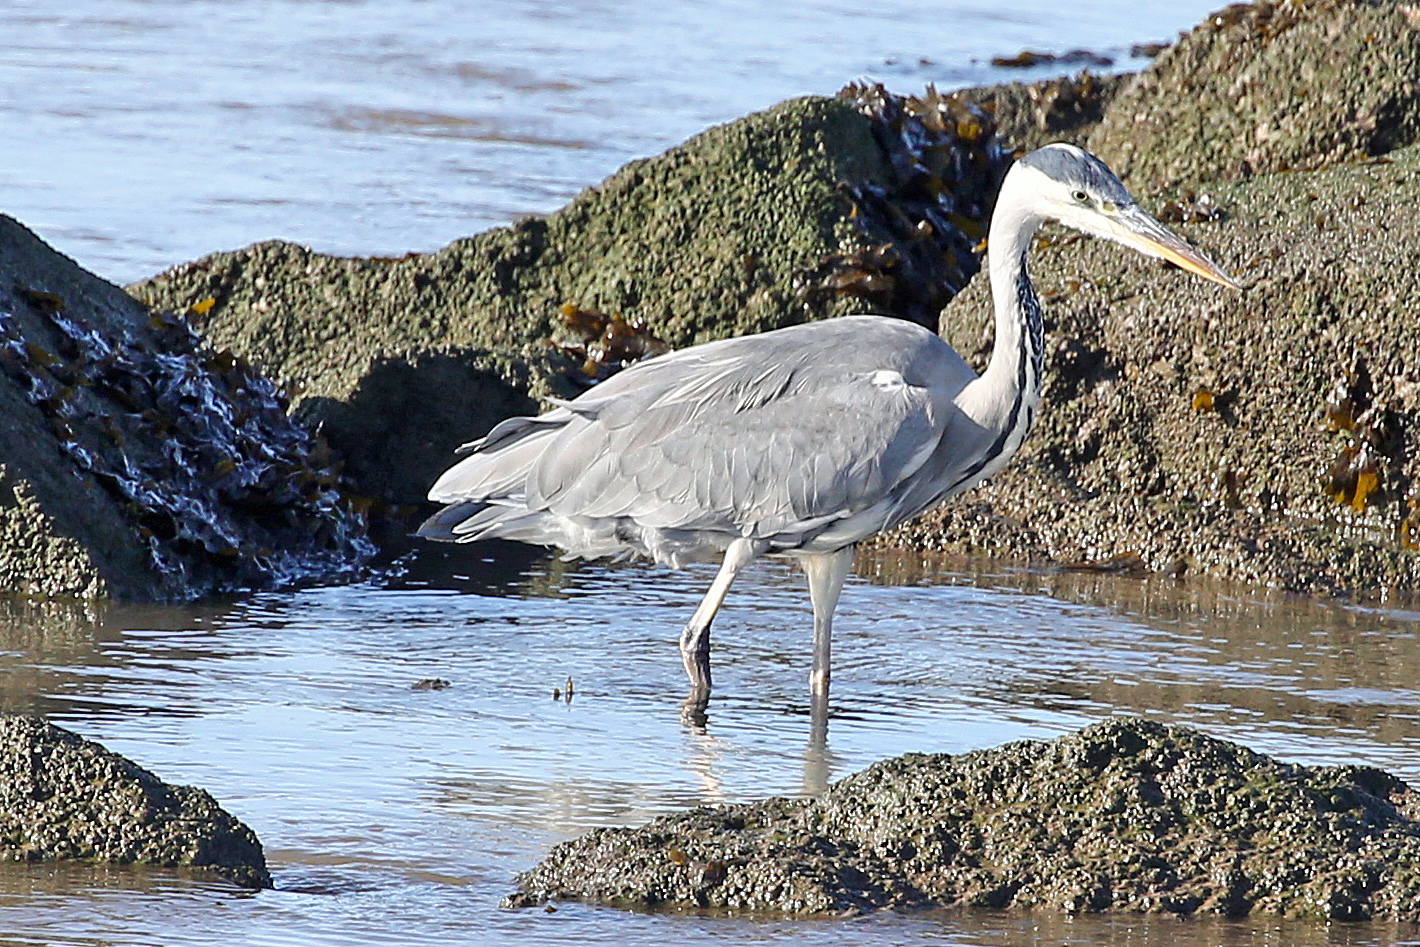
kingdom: Animalia
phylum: Chordata
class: Aves
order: Pelecaniformes
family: Ardeidae
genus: Ardea
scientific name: Ardea cinerea
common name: Grey heron
